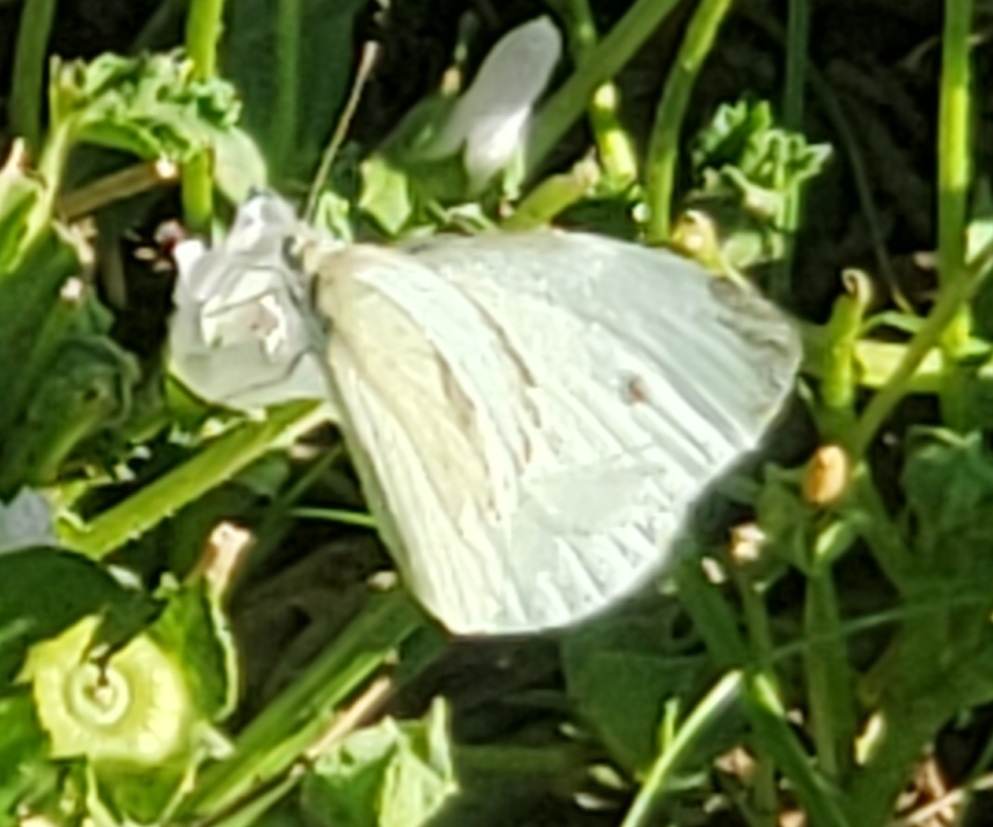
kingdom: Animalia
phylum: Arthropoda
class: Insecta
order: Lepidoptera
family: Pieridae
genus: Pieris
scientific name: Pieris rapae
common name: Small white
